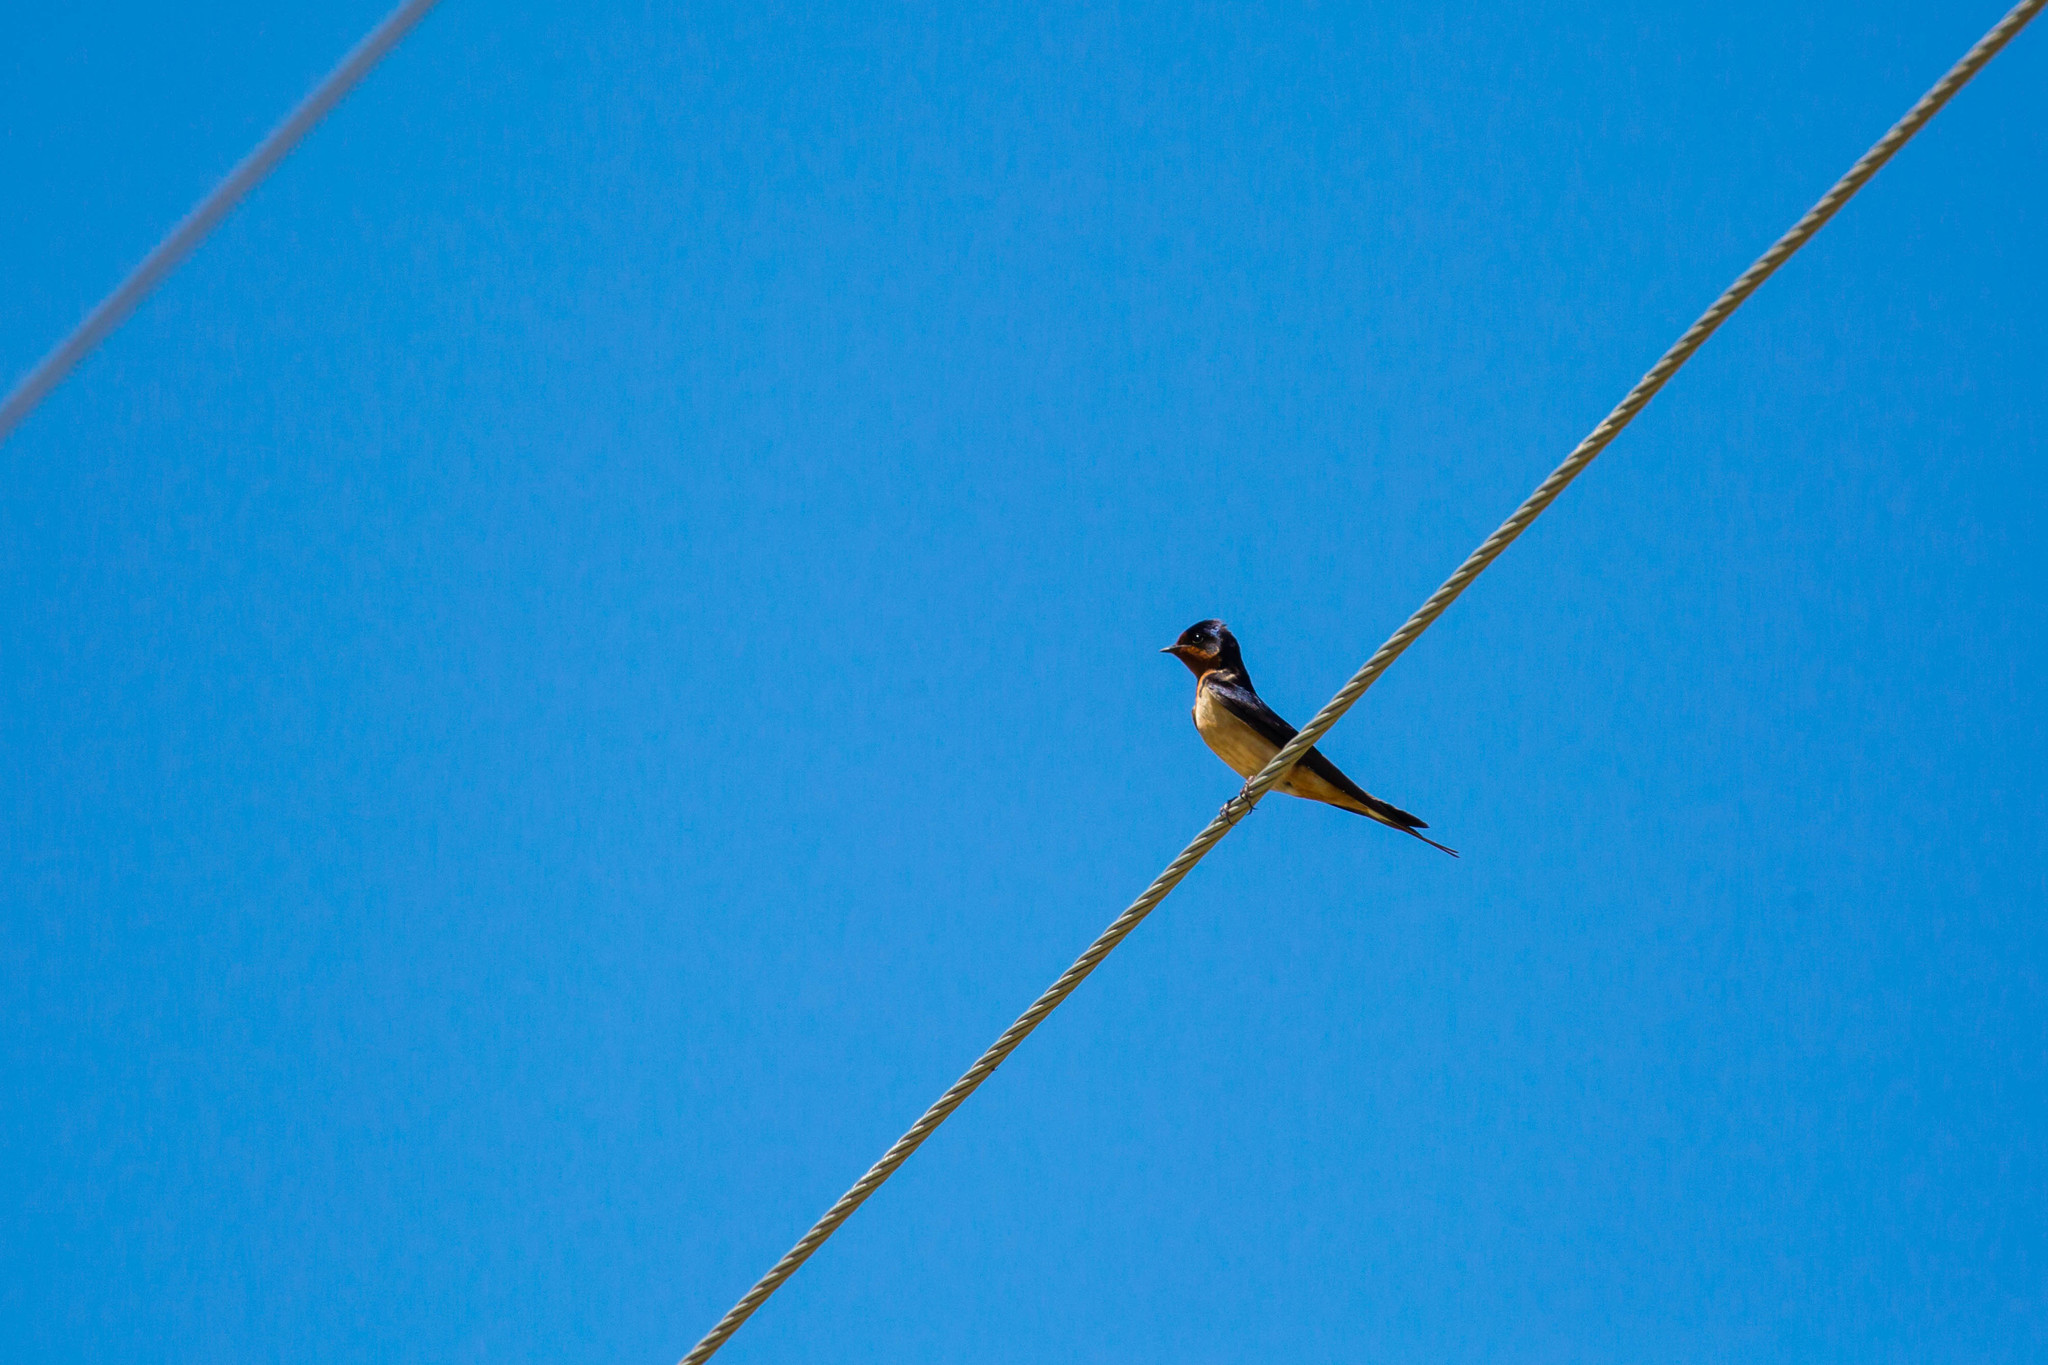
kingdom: Animalia
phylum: Chordata
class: Aves
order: Passeriformes
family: Hirundinidae
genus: Hirundo
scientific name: Hirundo rustica
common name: Barn swallow
